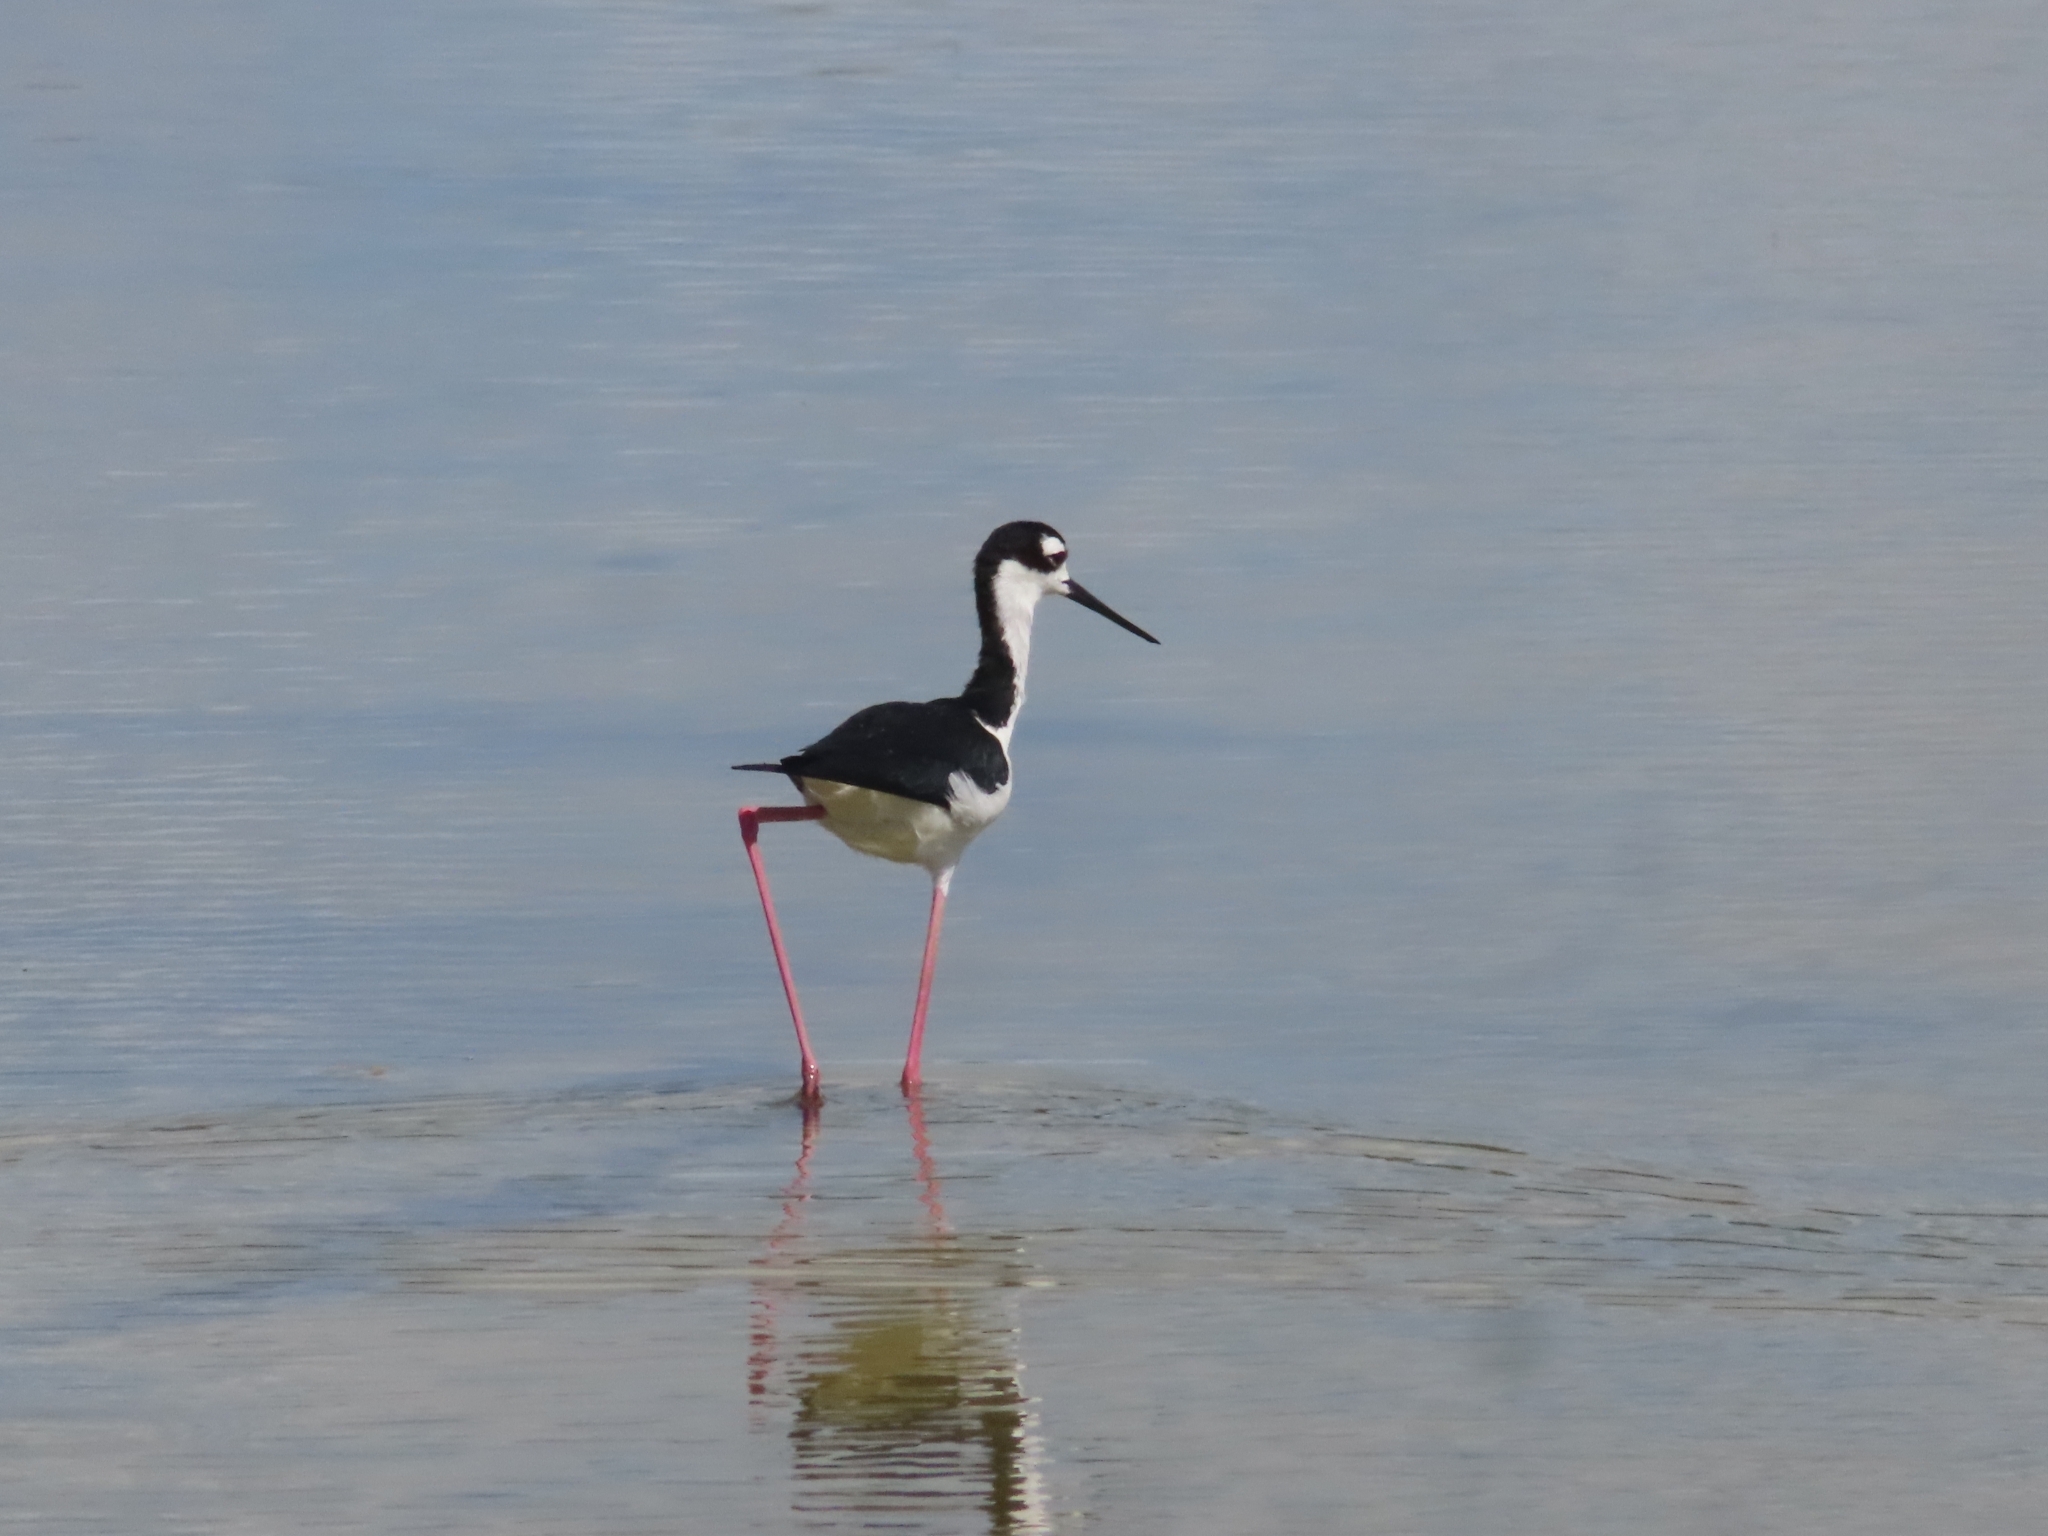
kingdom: Animalia
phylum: Chordata
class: Aves
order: Charadriiformes
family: Recurvirostridae
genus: Himantopus
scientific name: Himantopus mexicanus
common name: Black-necked stilt
